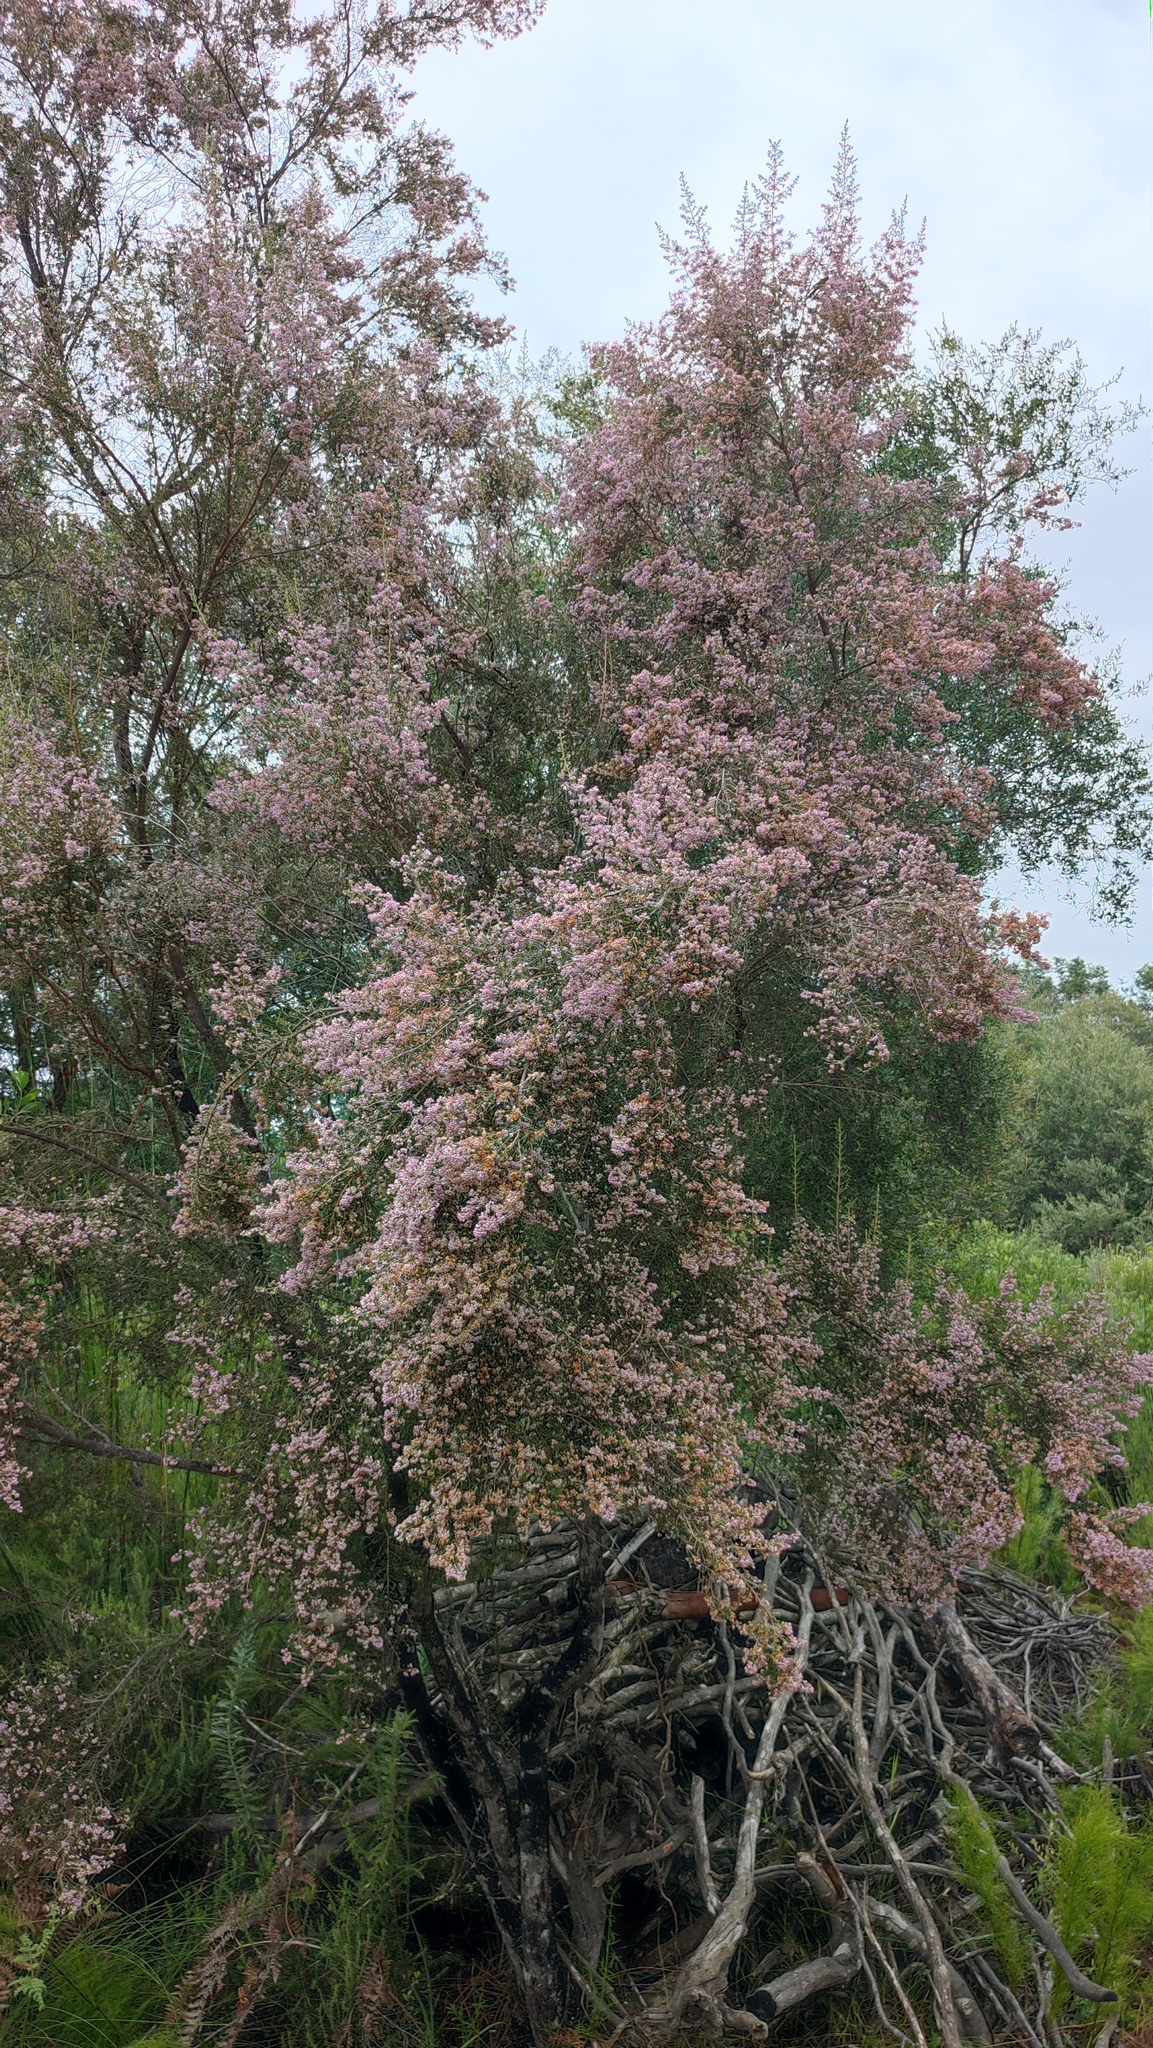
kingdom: Plantae
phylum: Tracheophyta
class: Magnoliopsida
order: Ericales
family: Ericaceae
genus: Erica
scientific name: Erica canaliculata
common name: Hairy grey heather
